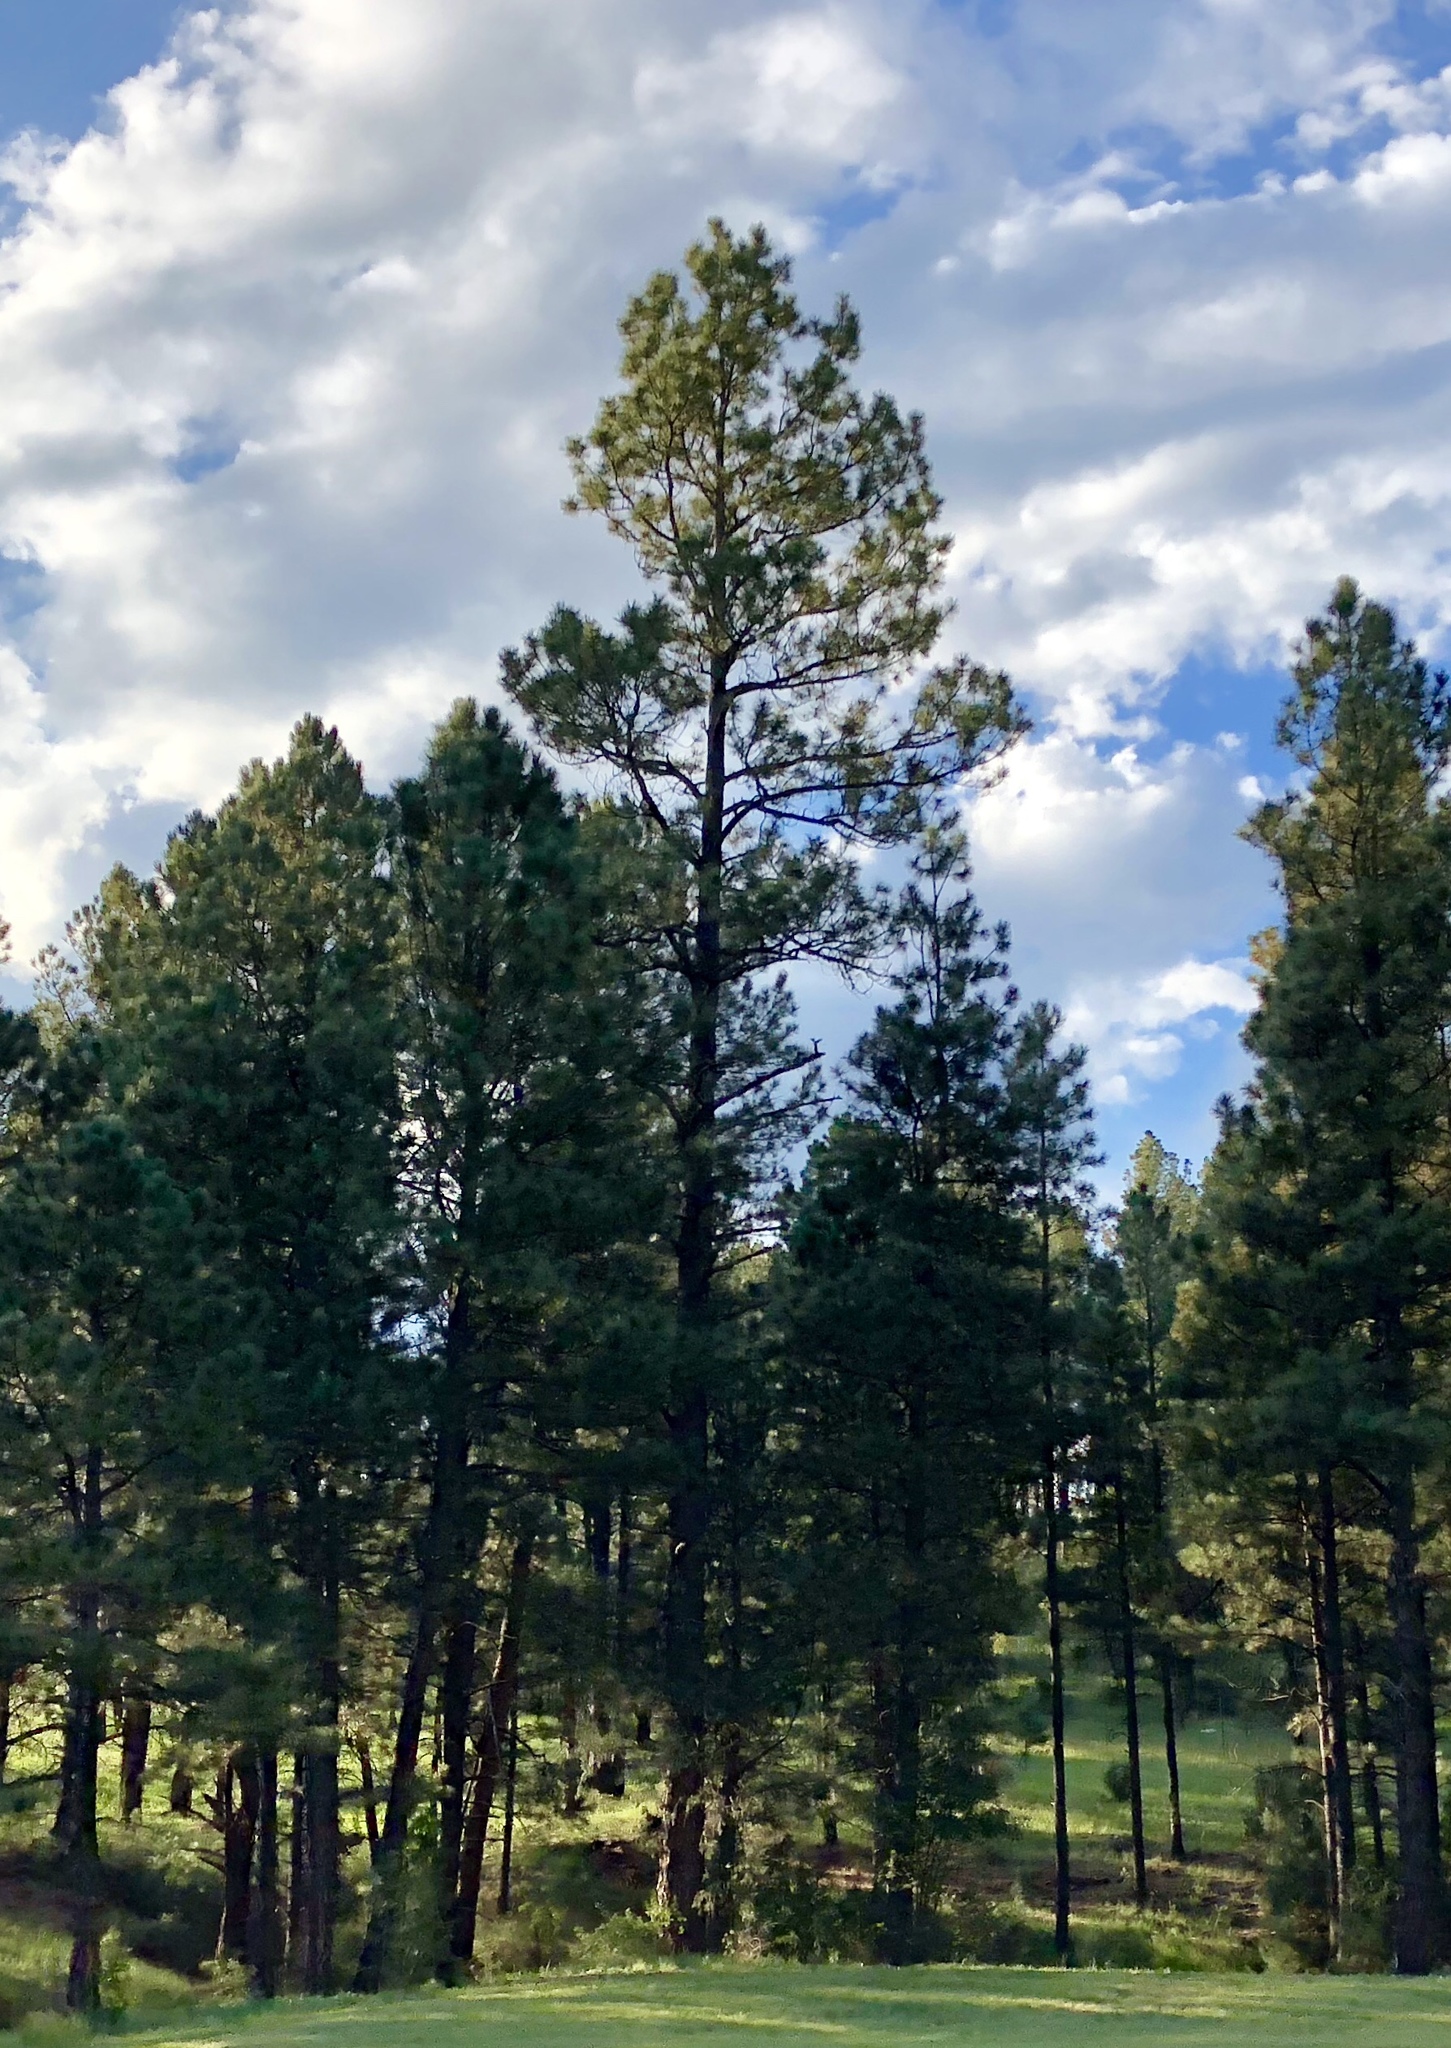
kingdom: Plantae
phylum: Tracheophyta
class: Pinopsida
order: Pinales
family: Pinaceae
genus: Pinus
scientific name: Pinus ponderosa
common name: Western yellow-pine
